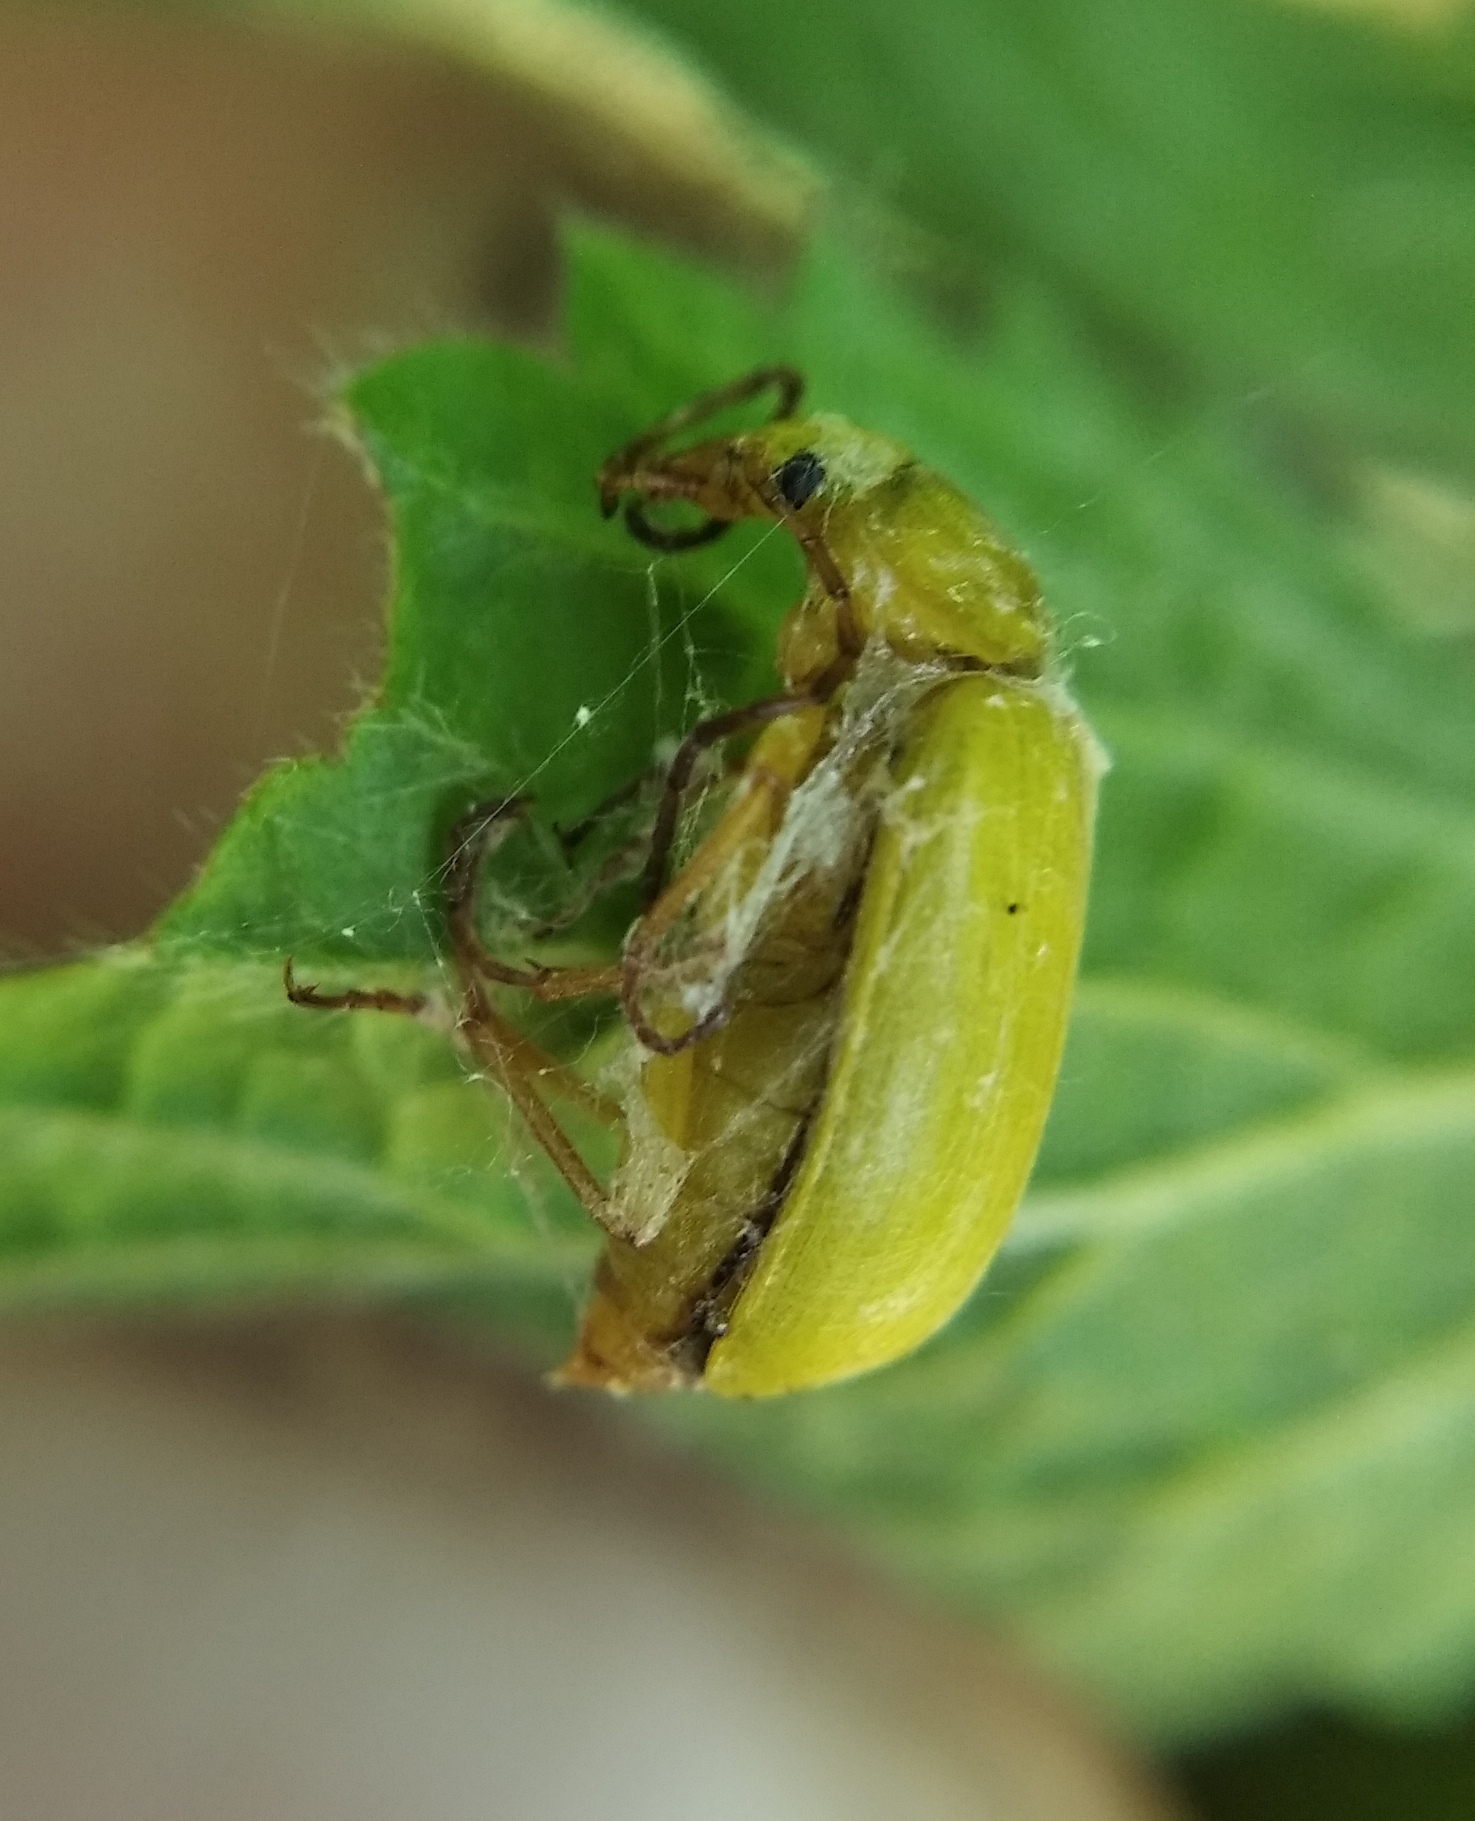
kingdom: Animalia
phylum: Arthropoda
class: Insecta
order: Coleoptera
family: Tenebrionidae
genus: Cteniopus
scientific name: Cteniopus sulphureus
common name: Sulphur beetle
